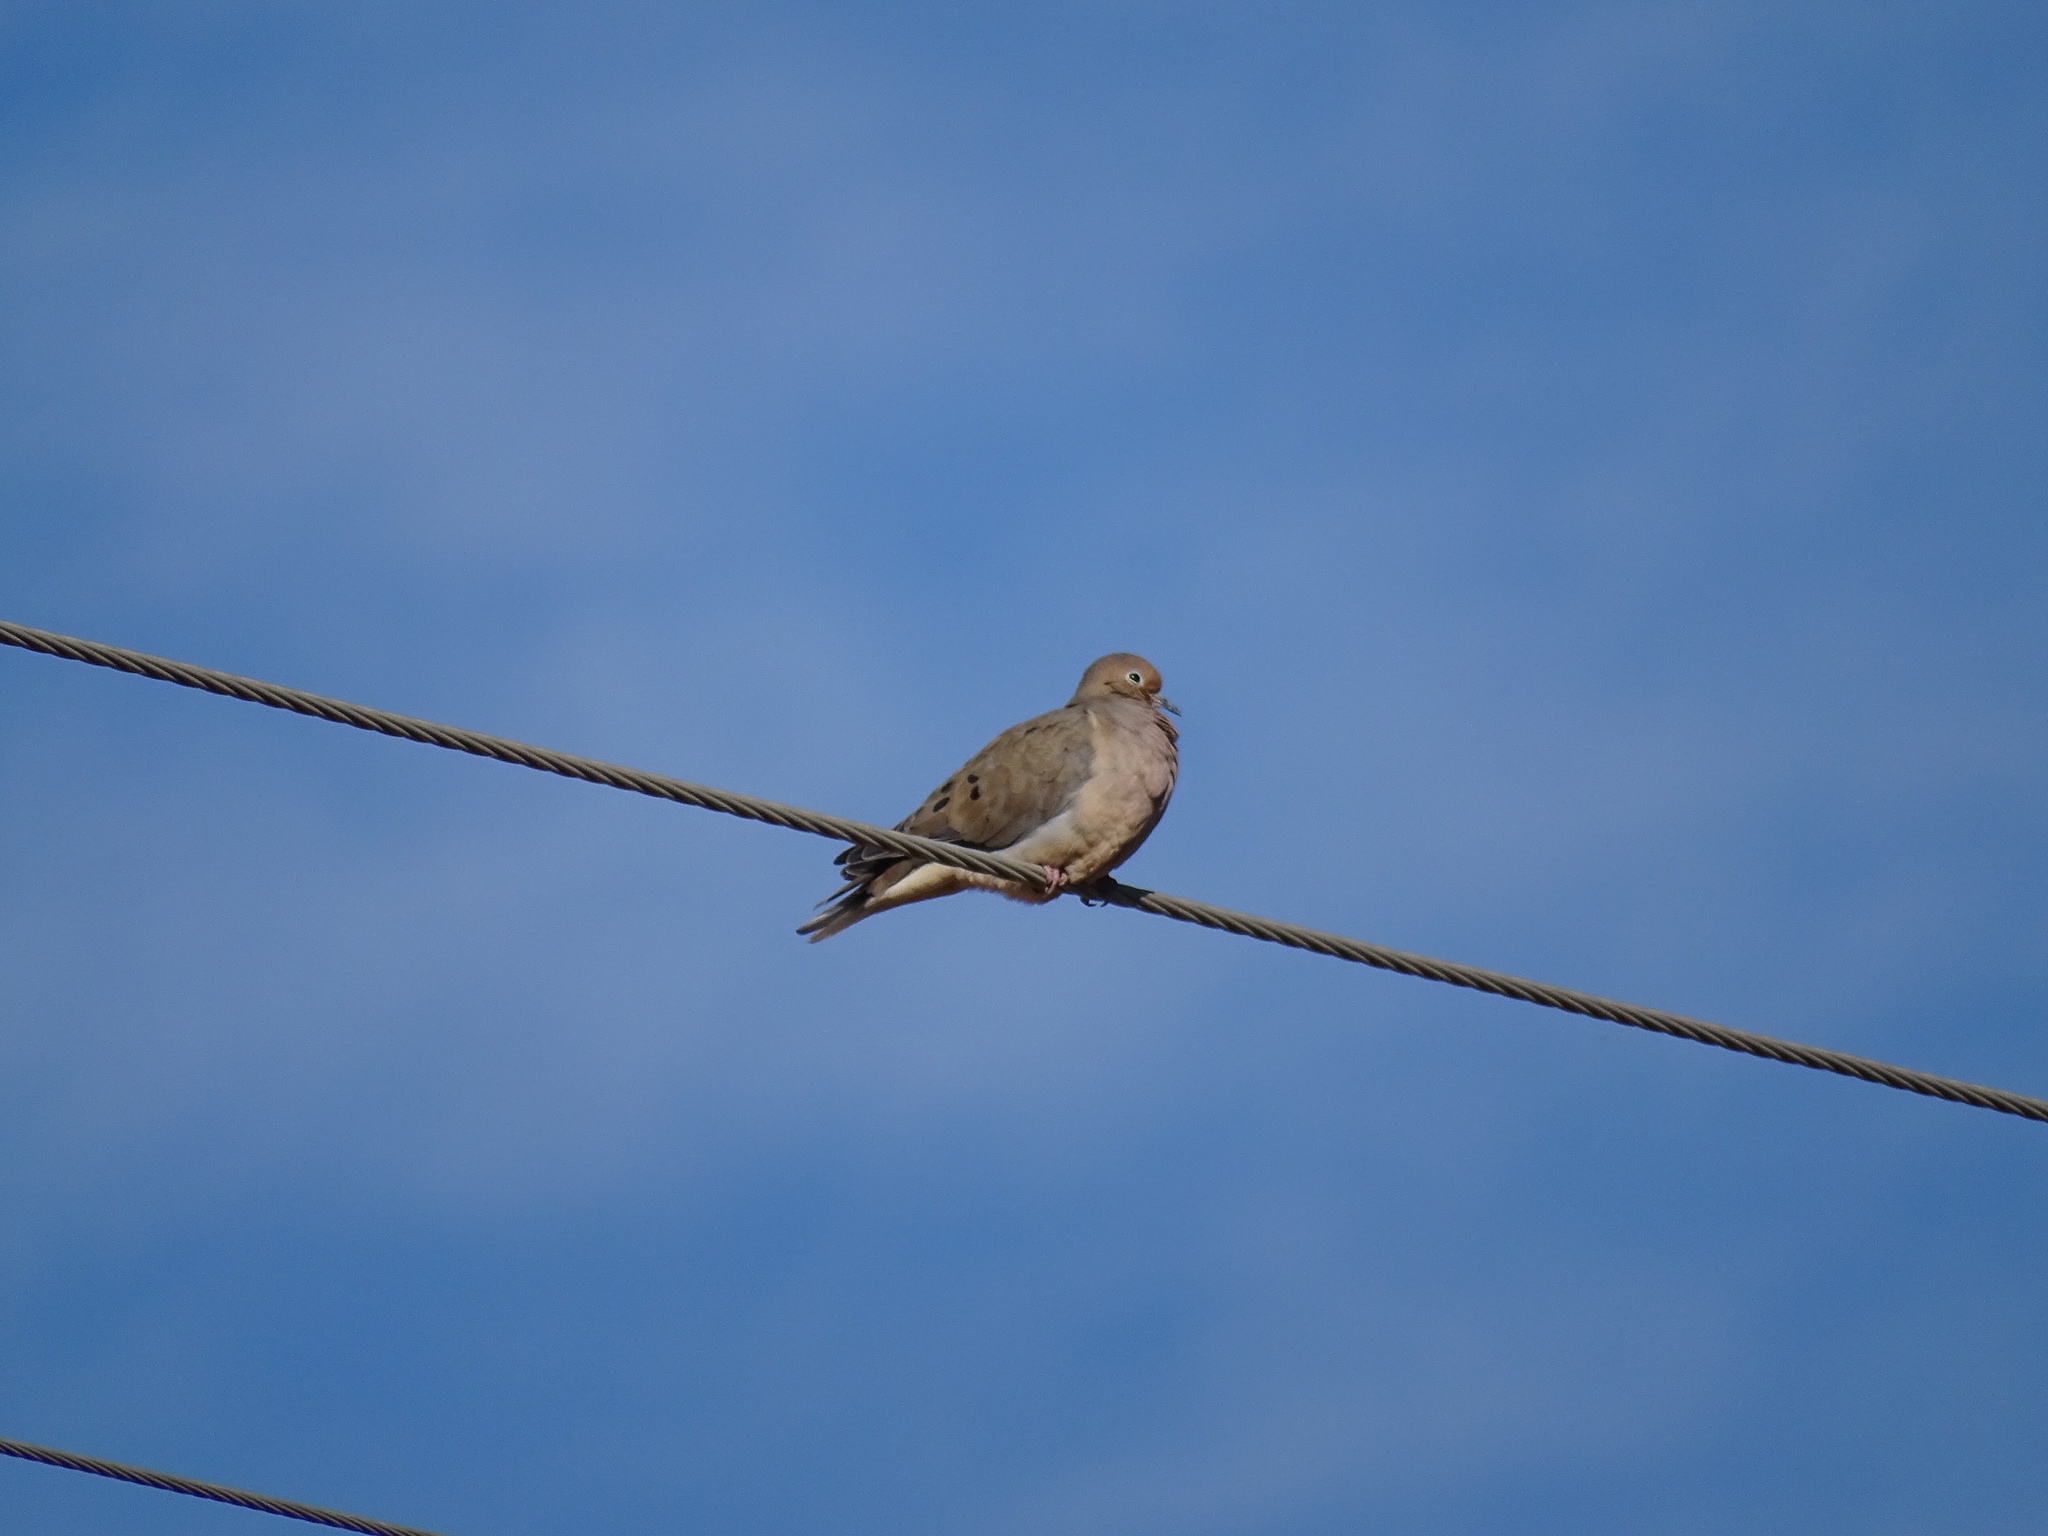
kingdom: Animalia
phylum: Chordata
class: Aves
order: Columbiformes
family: Columbidae
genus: Zenaida
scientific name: Zenaida macroura
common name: Mourning dove
